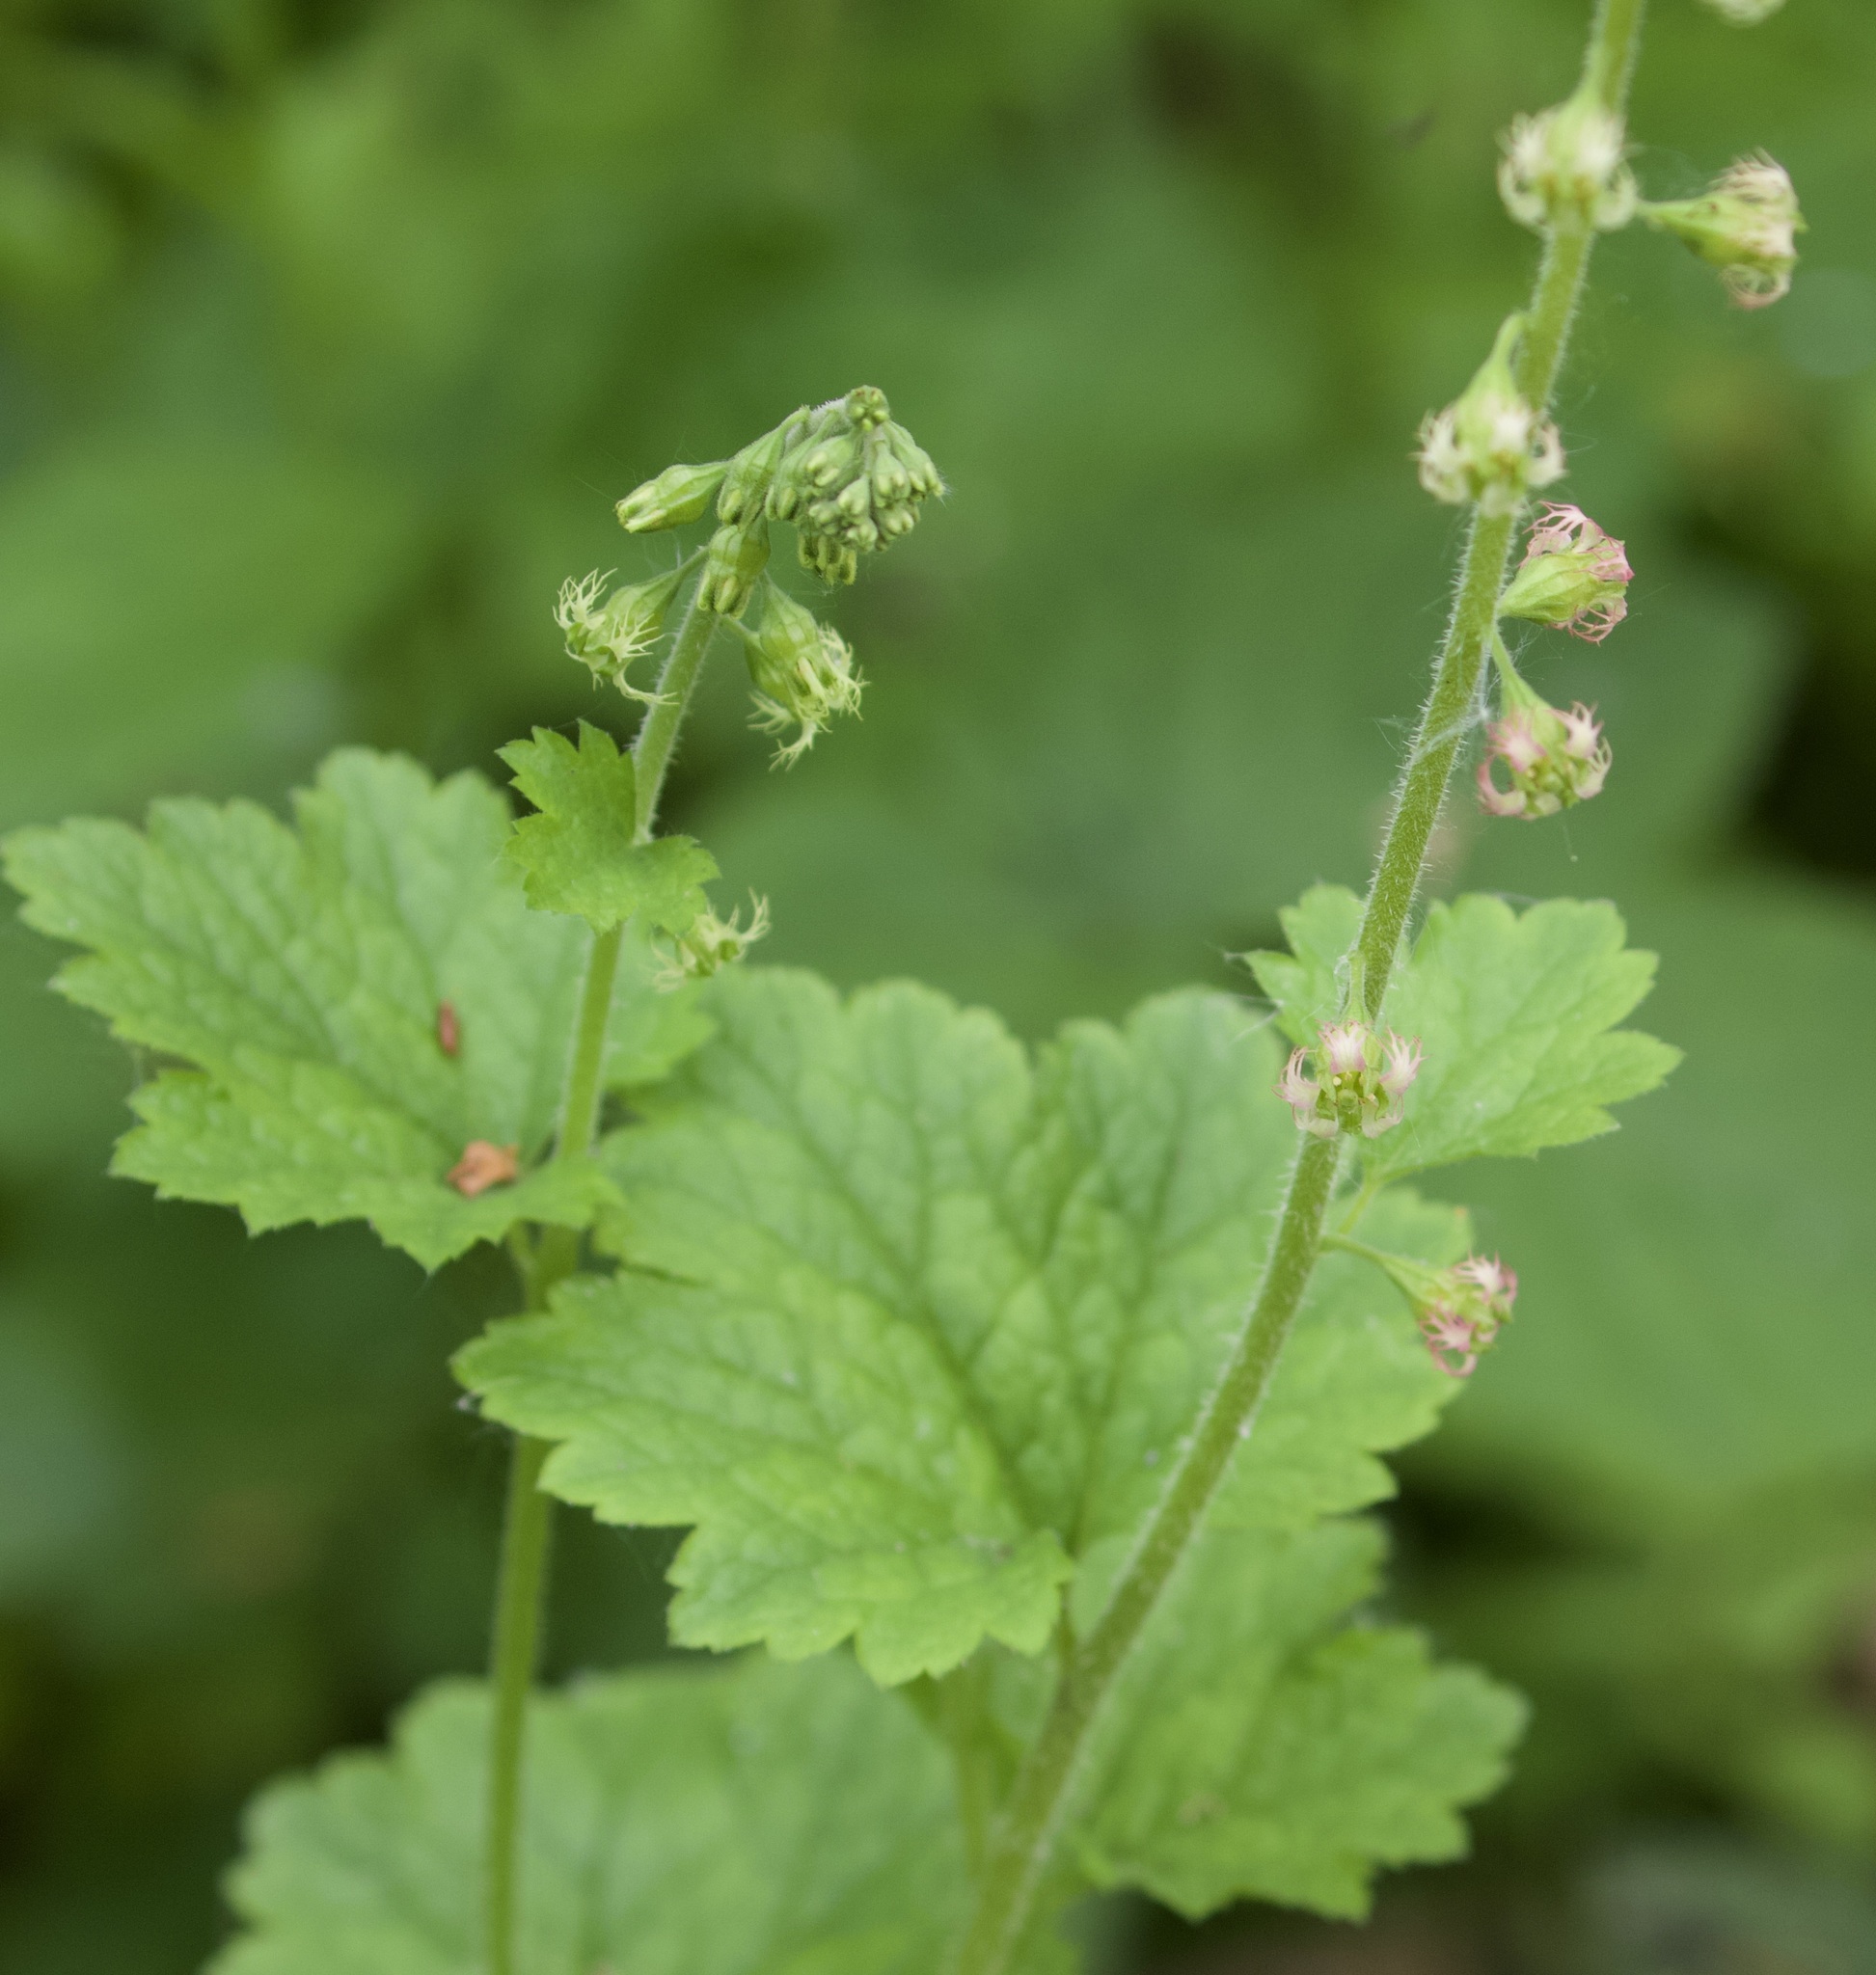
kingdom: Plantae
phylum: Tracheophyta
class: Magnoliopsida
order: Saxifragales
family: Saxifragaceae
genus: Tellima
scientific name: Tellima grandiflora
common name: Fringecups
